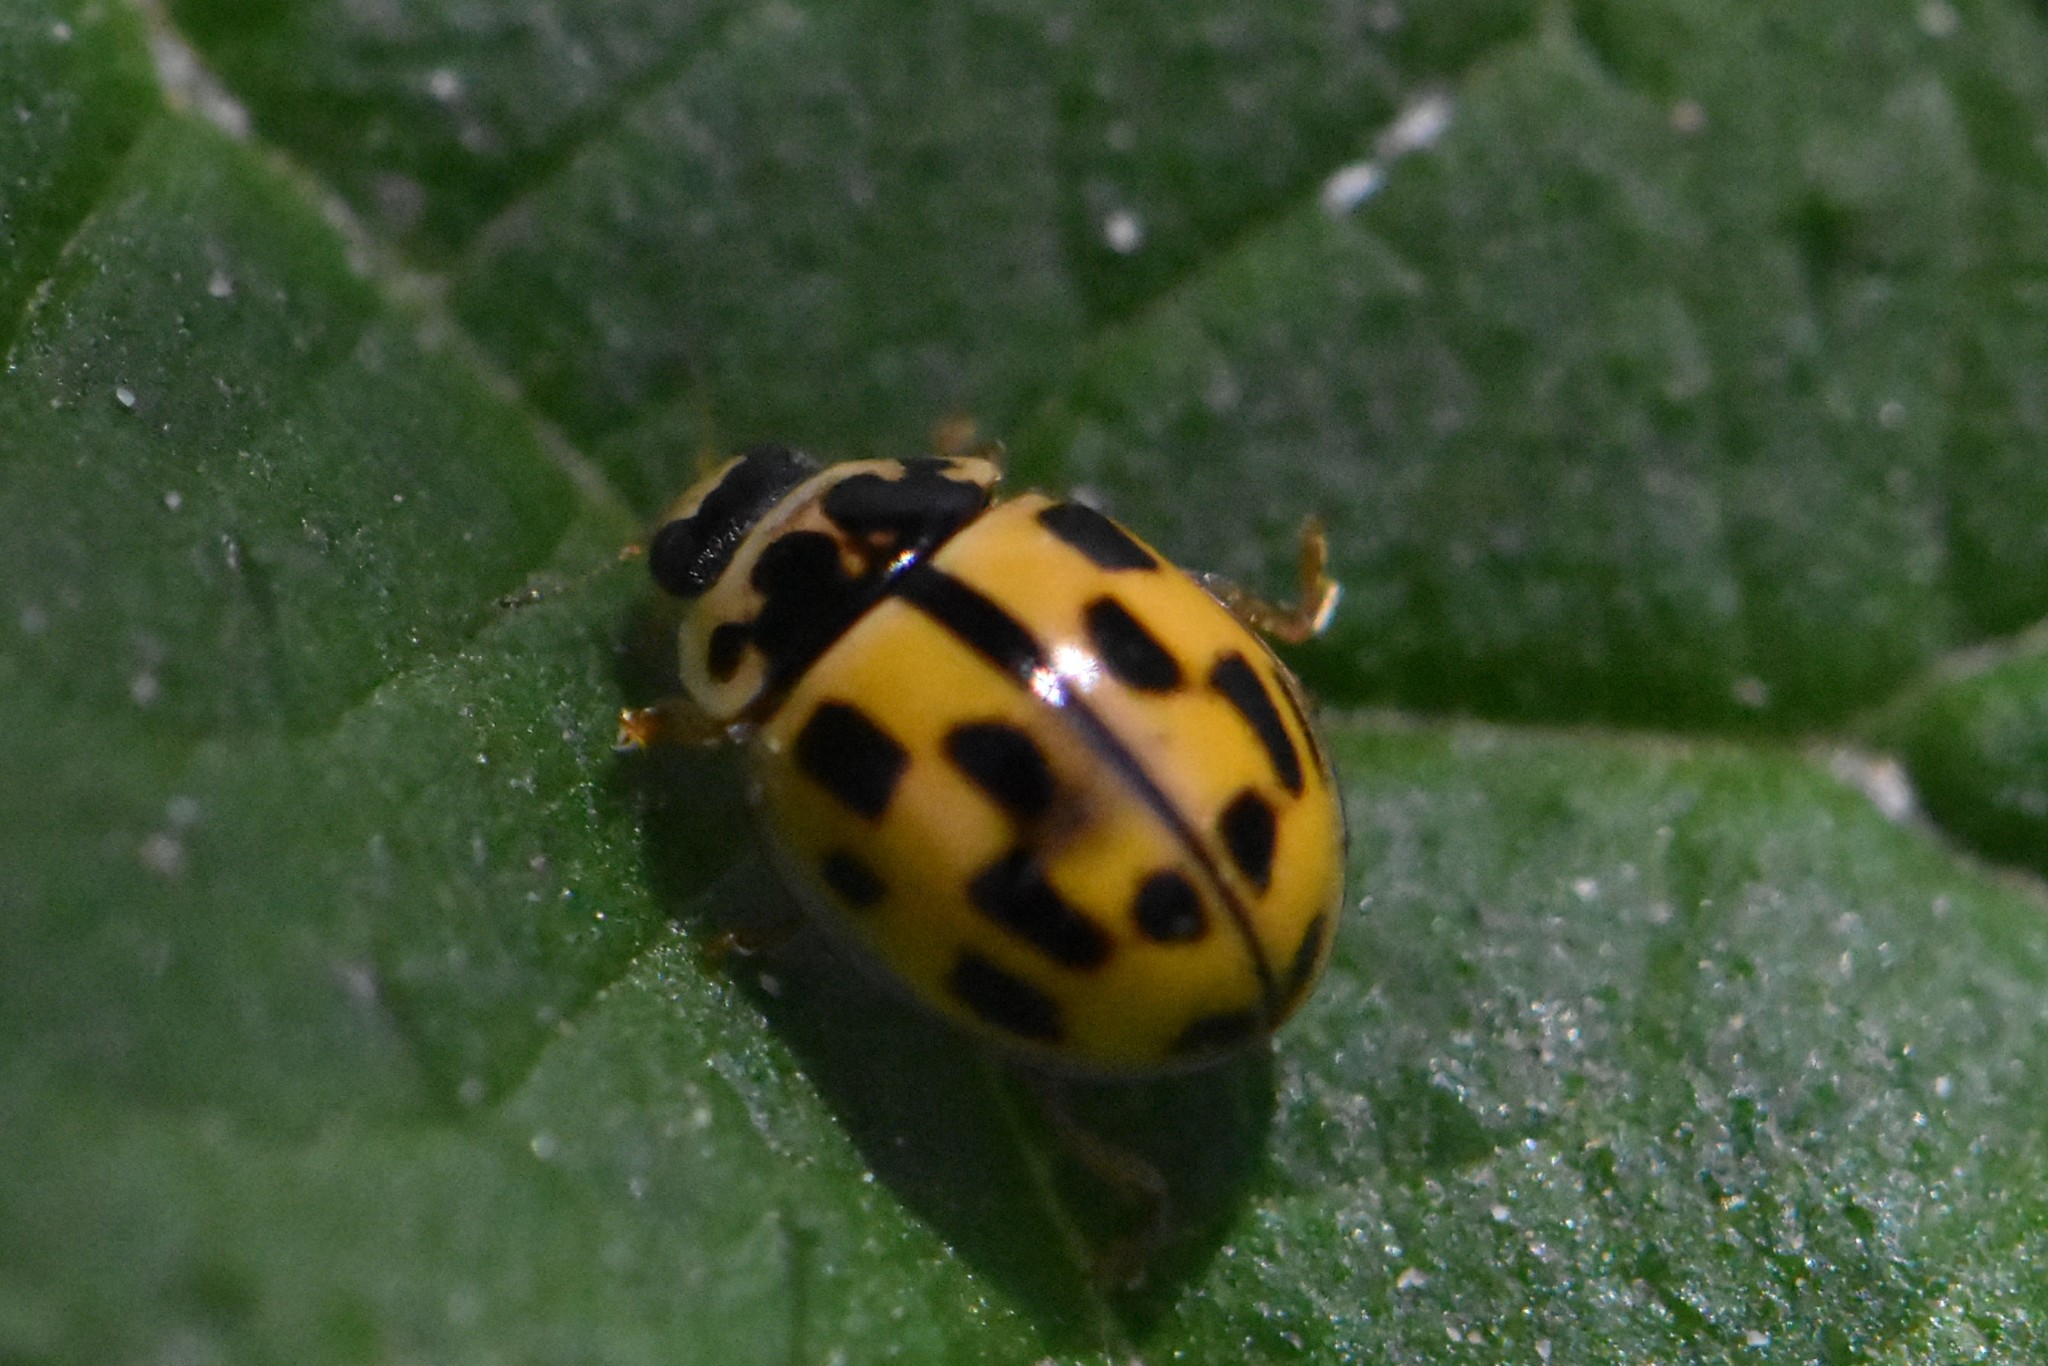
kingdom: Animalia
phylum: Arthropoda
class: Insecta
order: Coleoptera
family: Coccinellidae
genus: Propylaea
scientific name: Propylaea quatuordecimpunctata
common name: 14-spotted ladybird beetle
